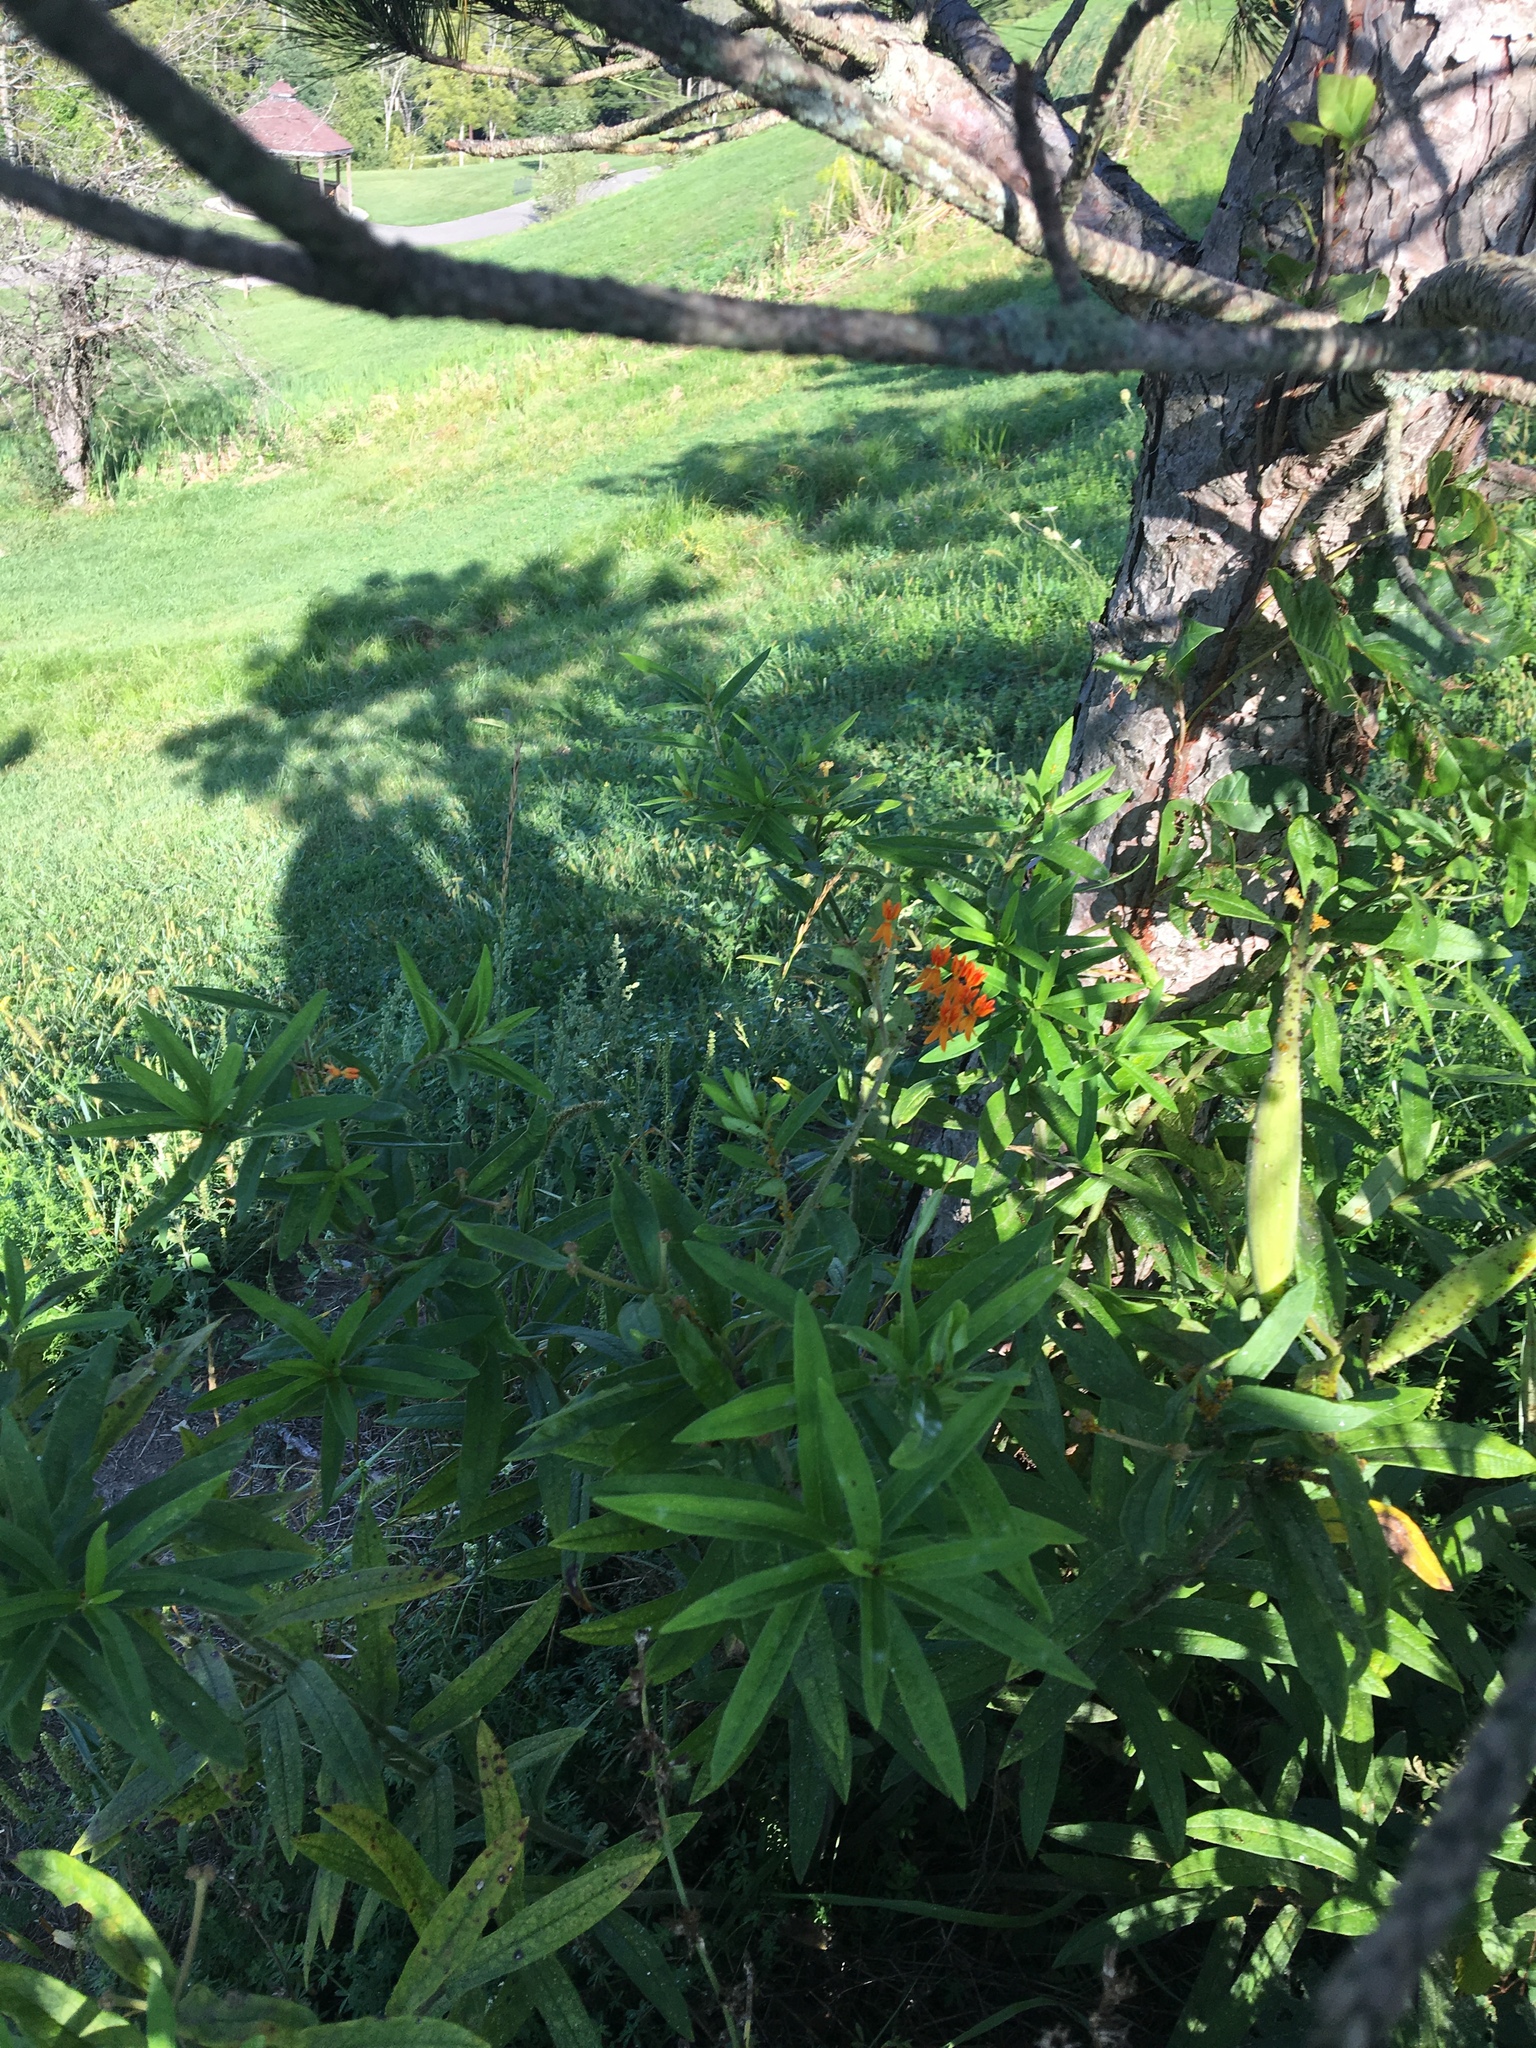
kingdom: Plantae
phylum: Tracheophyta
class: Magnoliopsida
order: Gentianales
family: Apocynaceae
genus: Asclepias
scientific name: Asclepias tuberosa
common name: Butterfly milkweed
